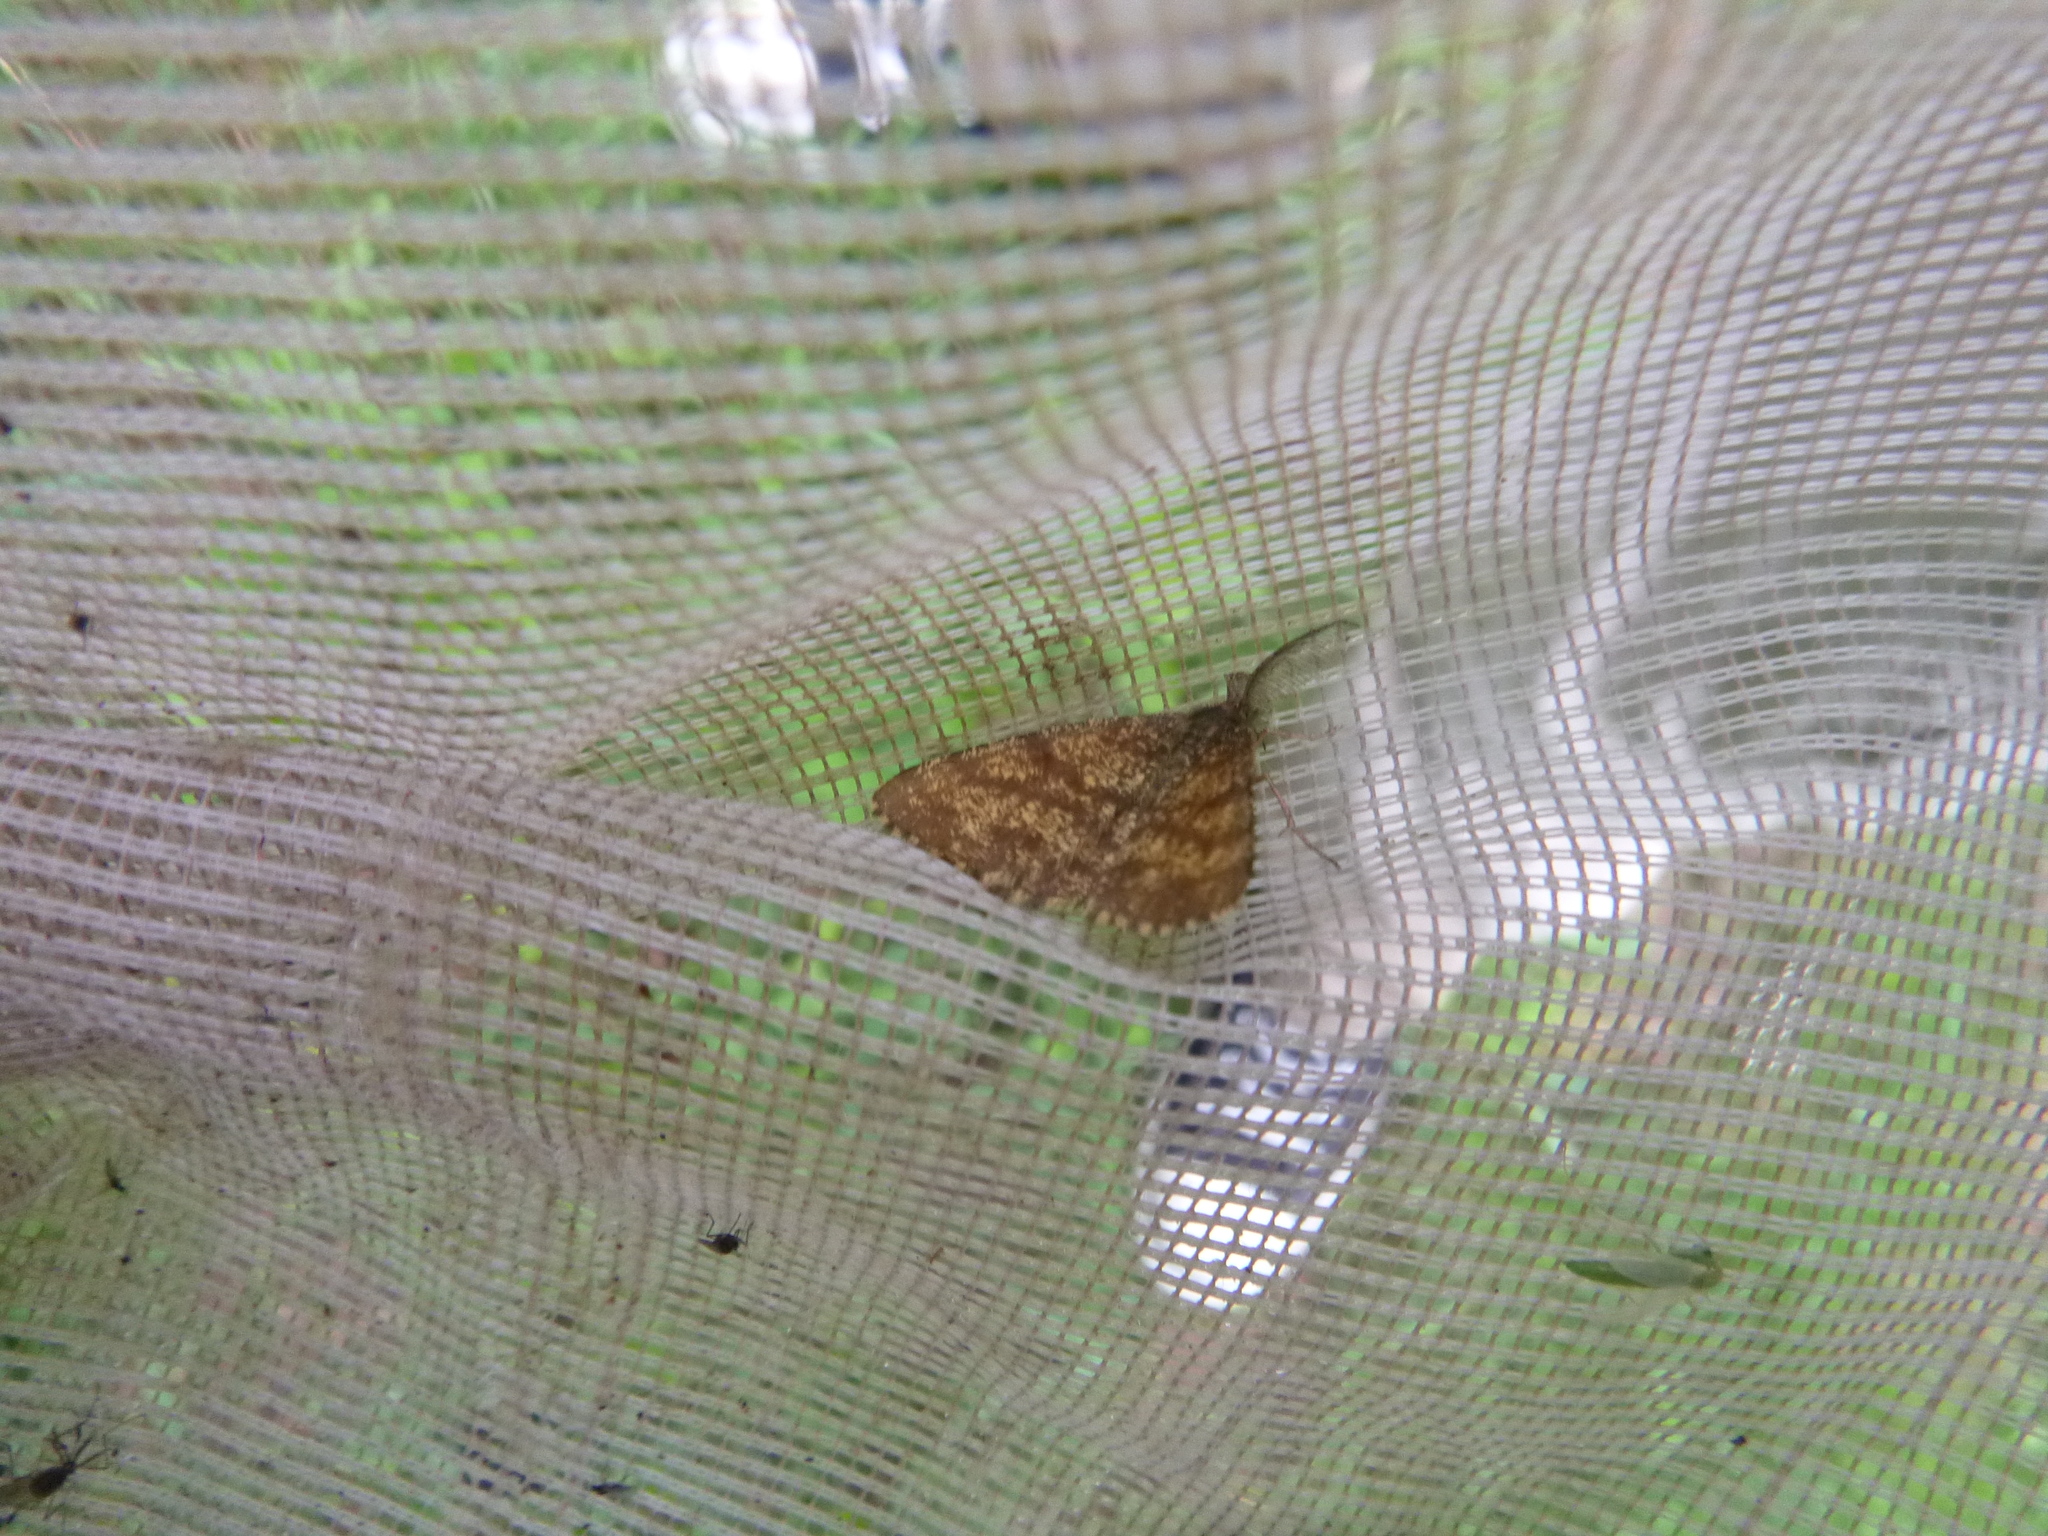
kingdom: Animalia
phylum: Arthropoda
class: Insecta
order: Lepidoptera
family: Geometridae
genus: Ematurga
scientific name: Ematurga atomaria
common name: Common heath
